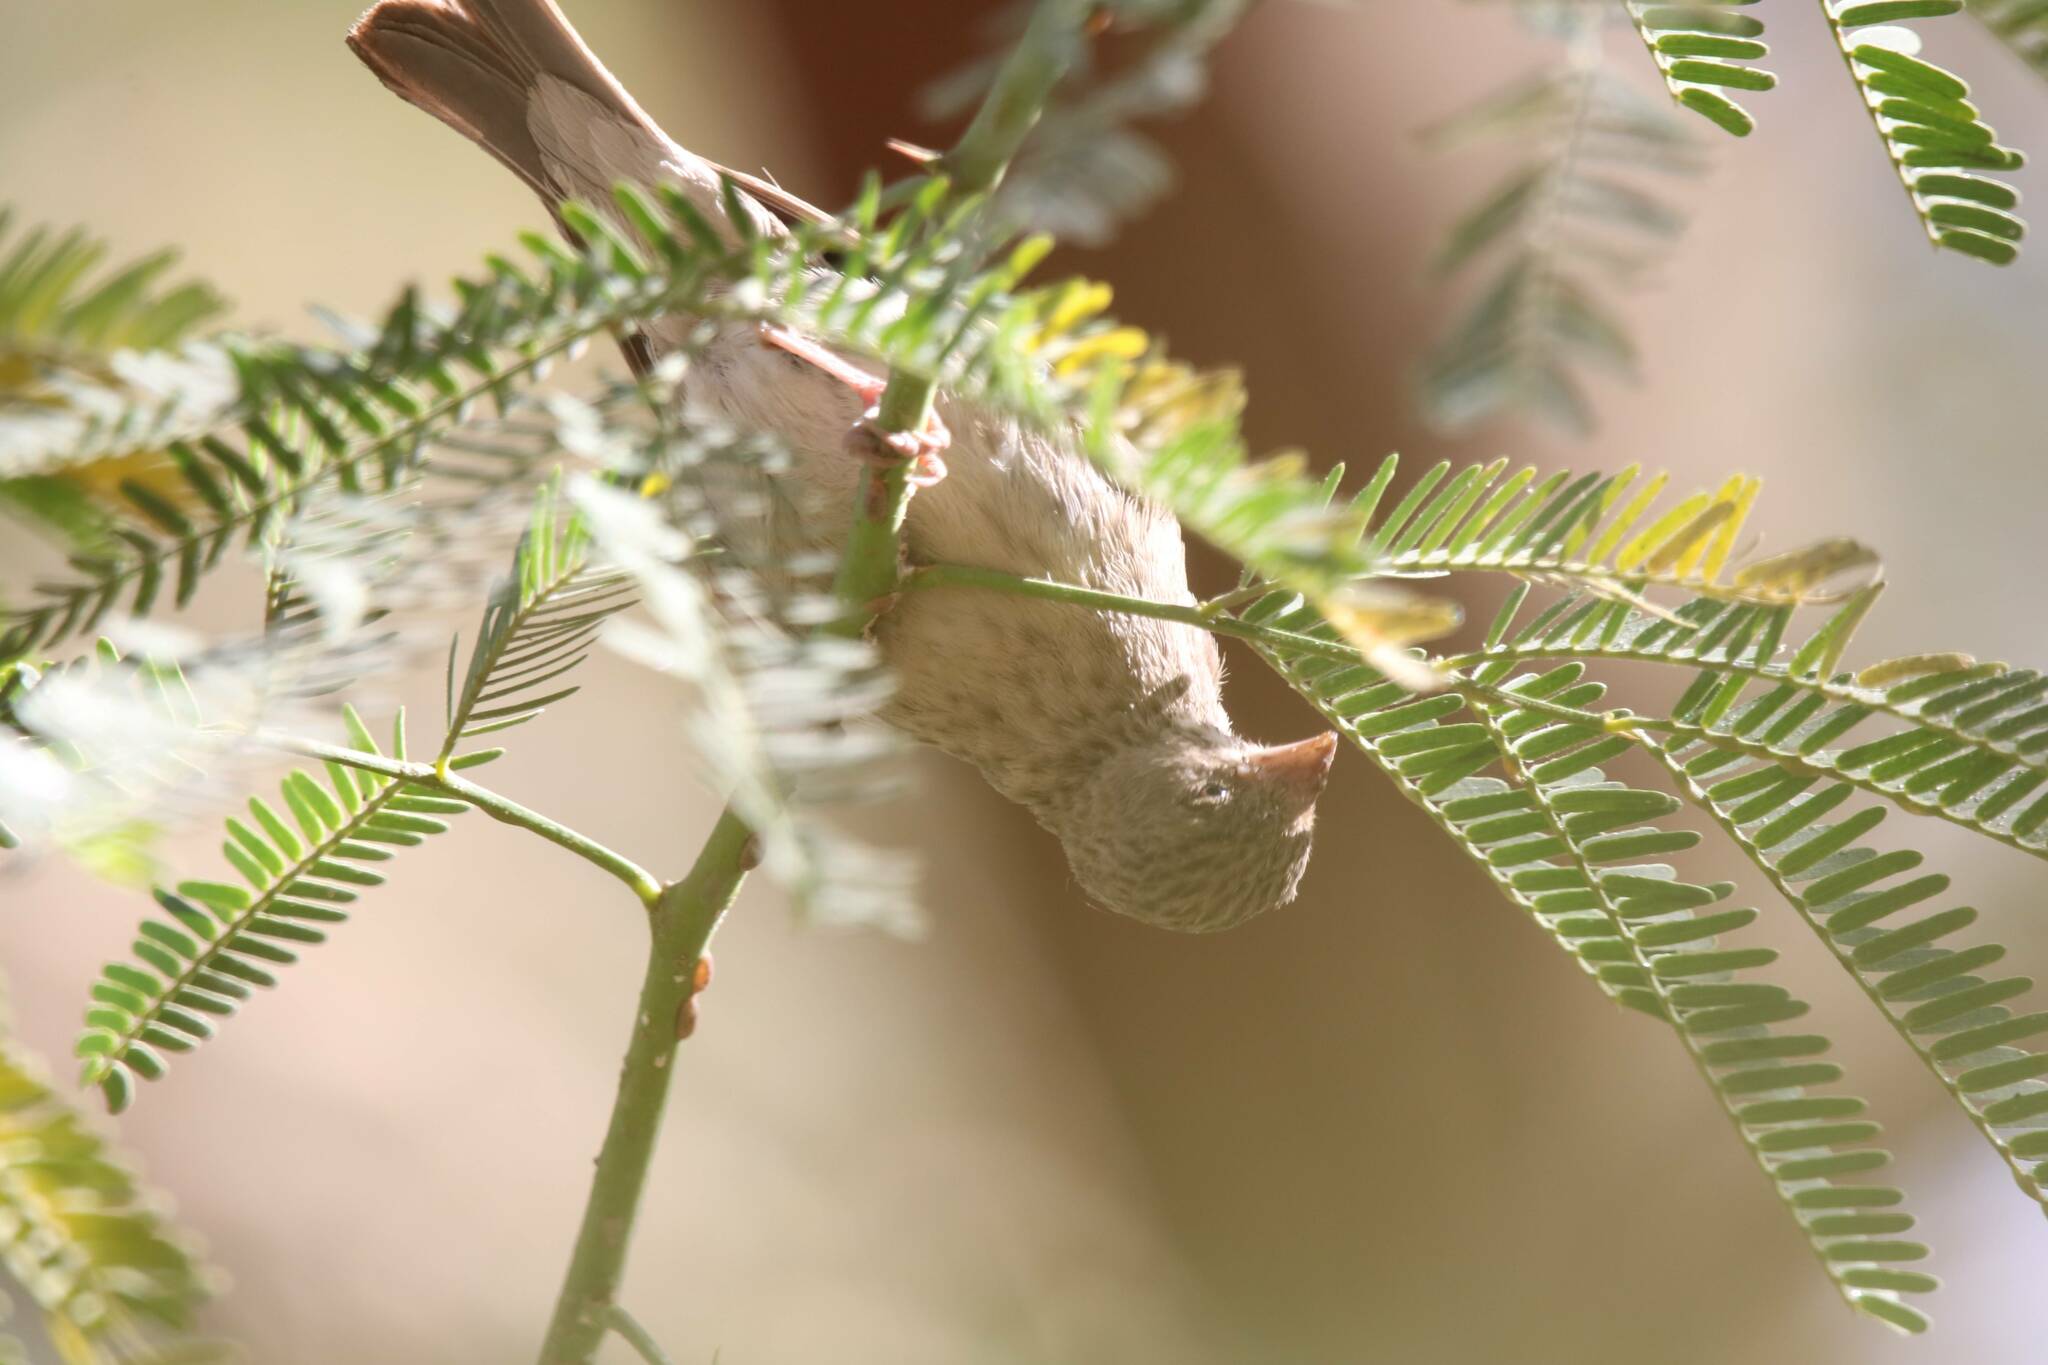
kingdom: Animalia
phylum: Chordata
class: Aves
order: Passeriformes
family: Fringillidae
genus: Crithagra
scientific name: Crithagra leucopygia
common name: White-rumped seedeater
